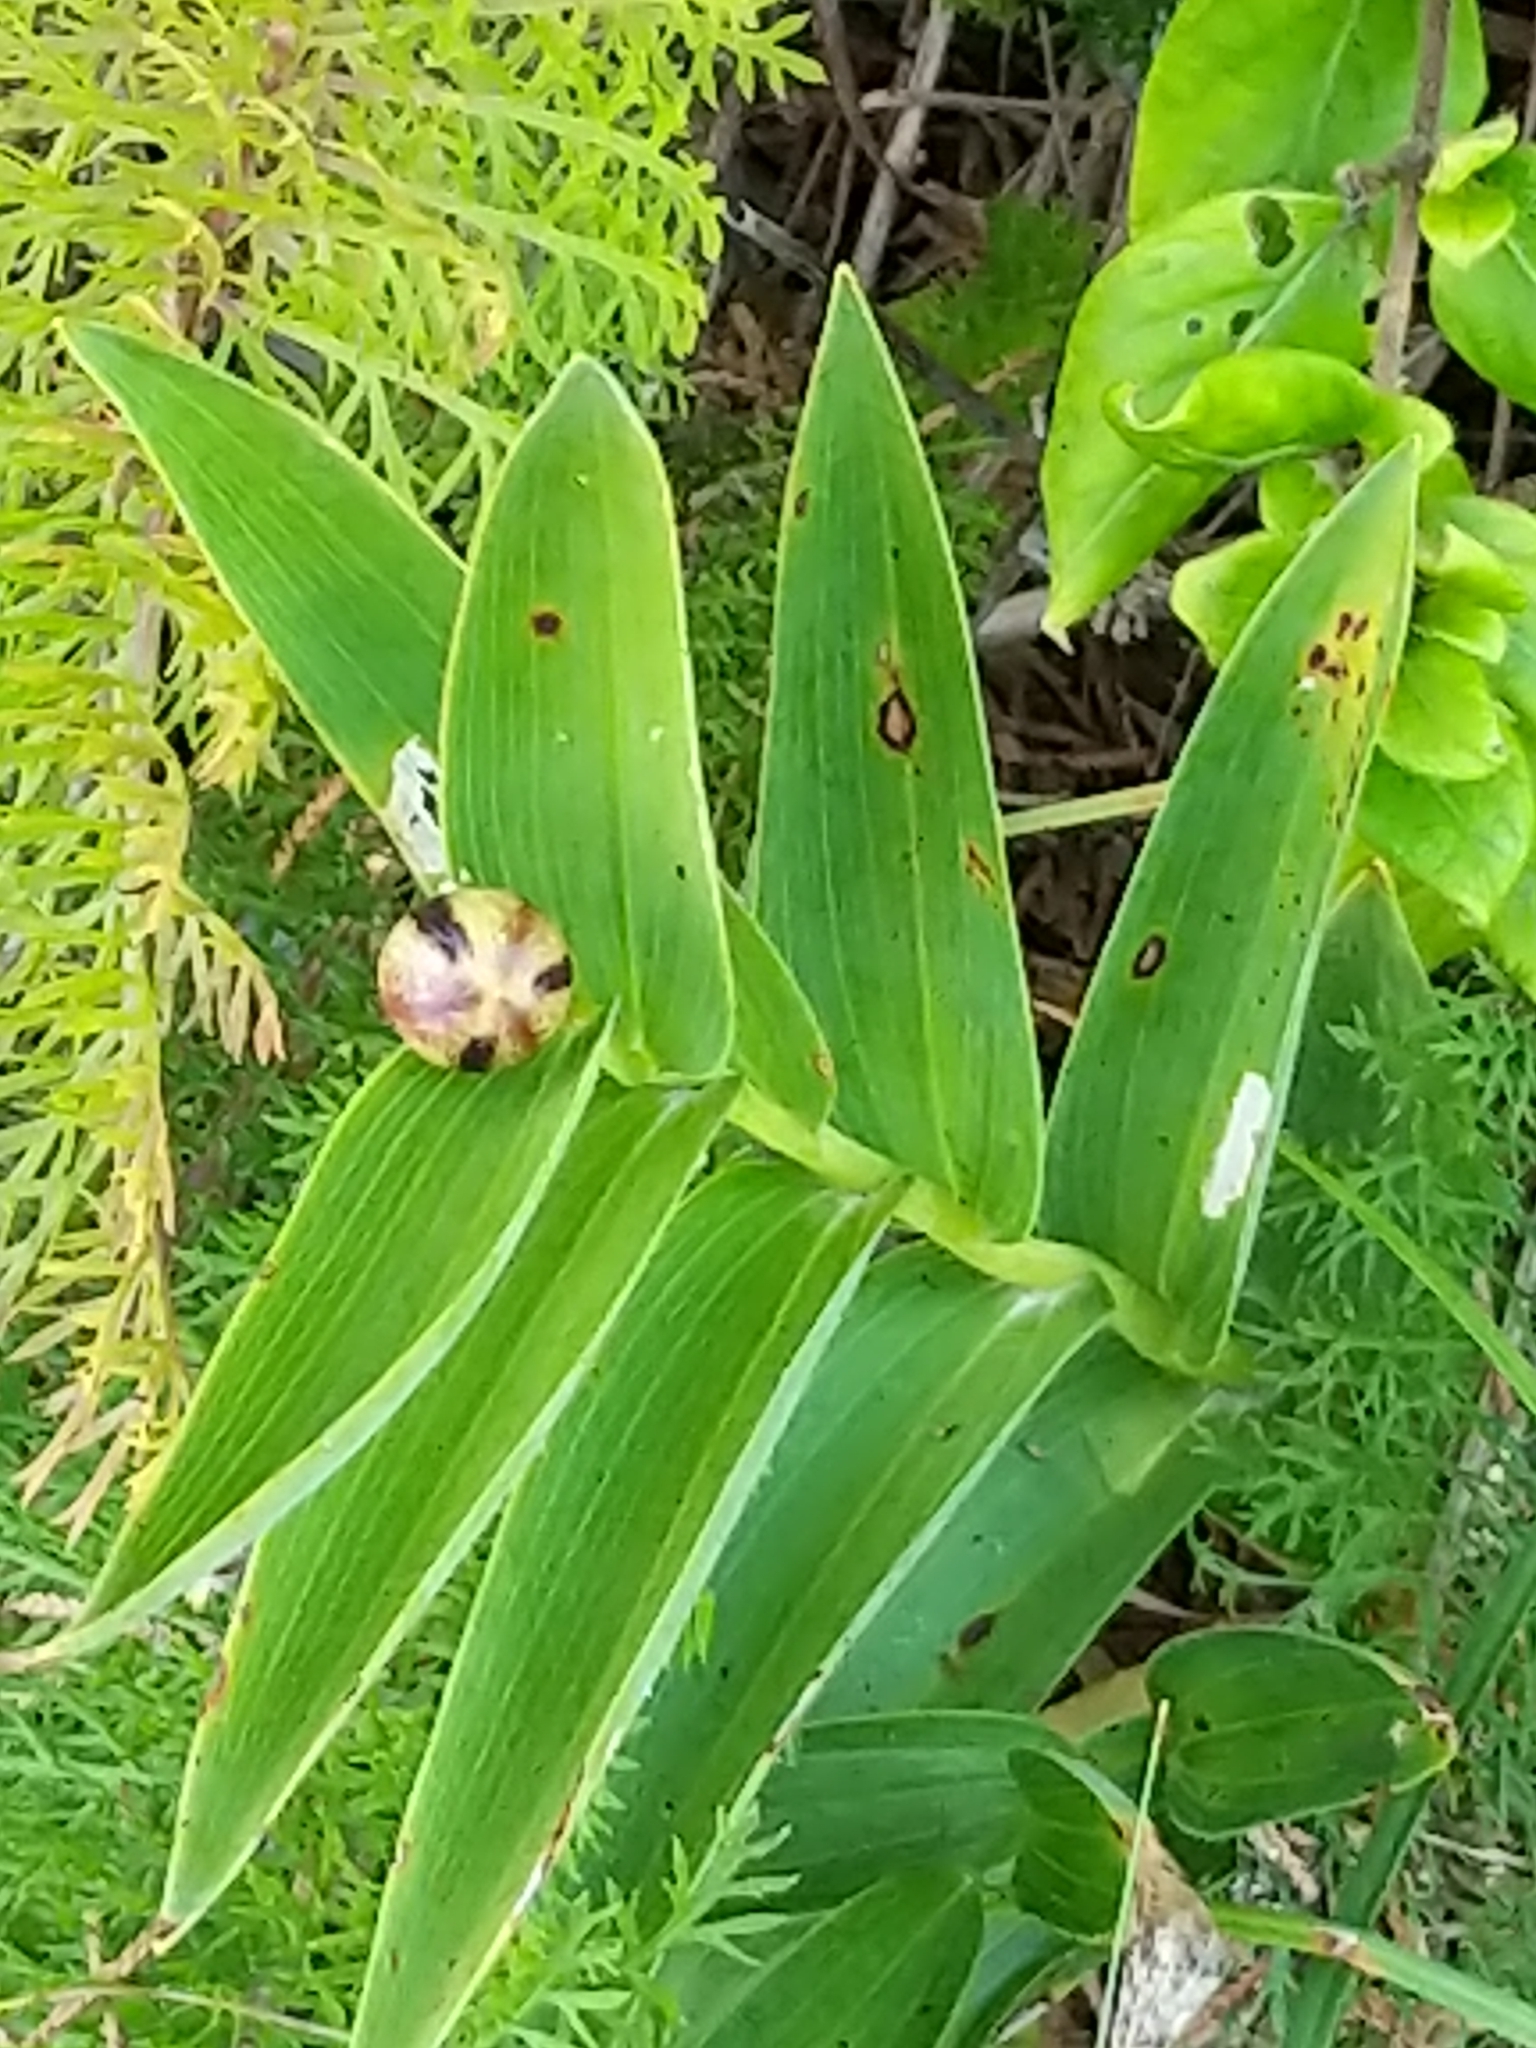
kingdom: Plantae
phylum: Tracheophyta
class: Liliopsida
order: Asparagales
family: Asparagaceae
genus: Maianthemum
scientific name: Maianthemum stellatum
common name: Little false solomon's seal
